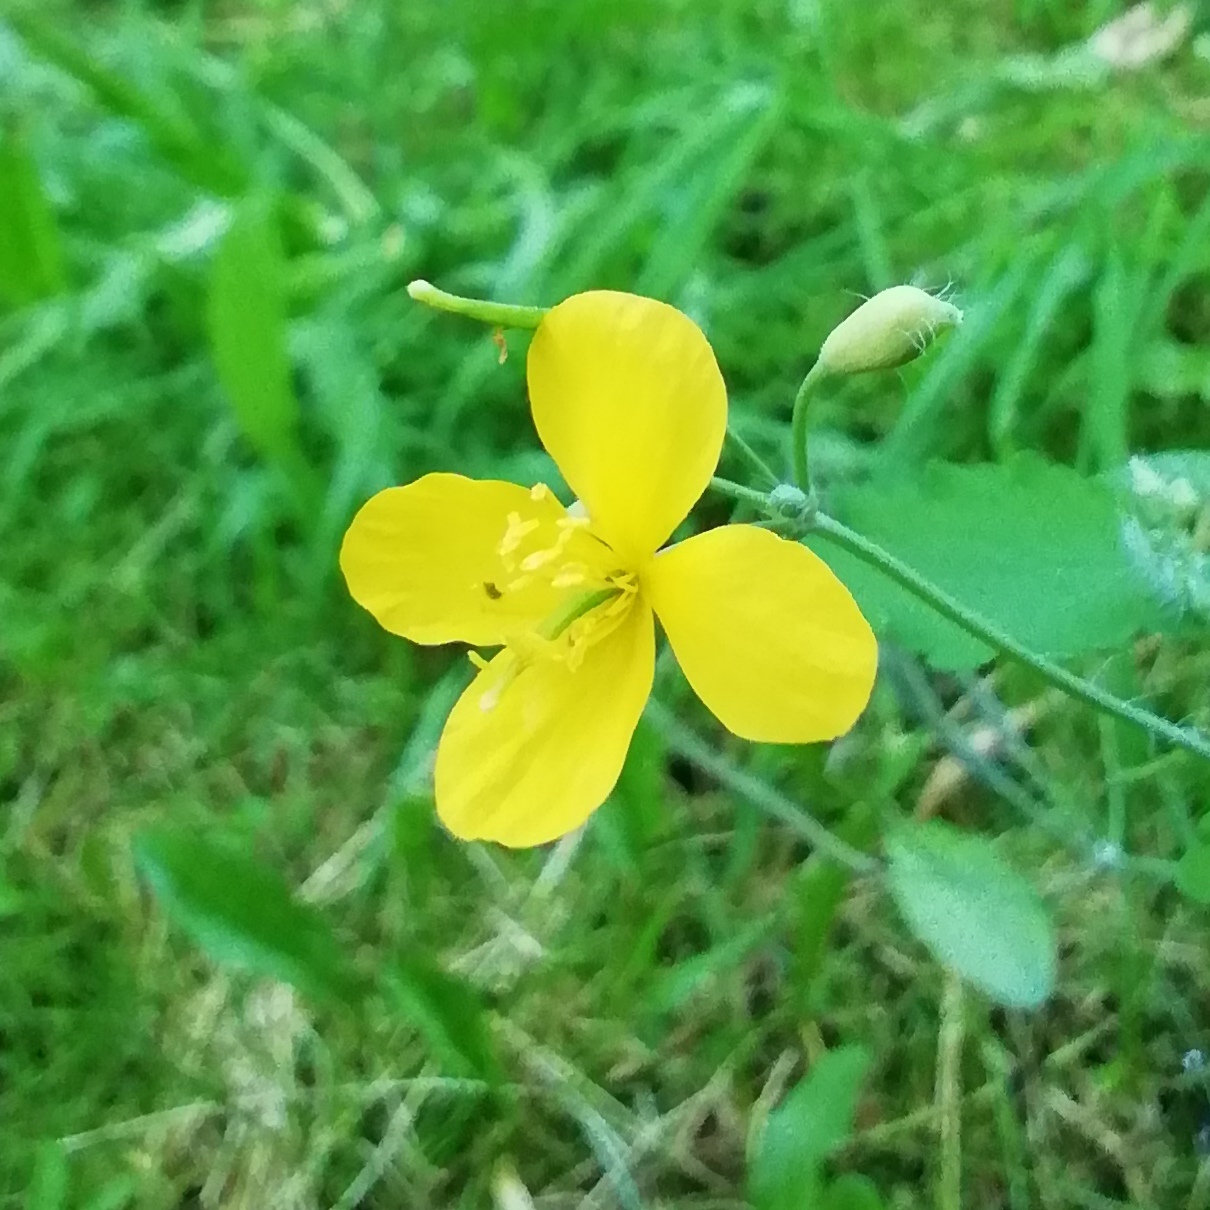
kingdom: Plantae
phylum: Tracheophyta
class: Magnoliopsida
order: Ranunculales
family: Papaveraceae
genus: Chelidonium
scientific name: Chelidonium majus
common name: Greater celandine
